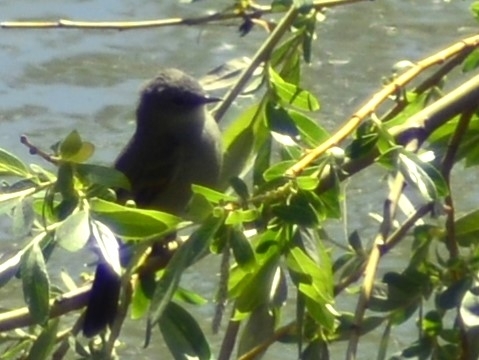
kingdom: Animalia
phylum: Chordata
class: Aves
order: Passeriformes
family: Tyrannidae
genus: Serpophaga
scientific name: Serpophaga nigricans
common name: Sooty tyrannulet
